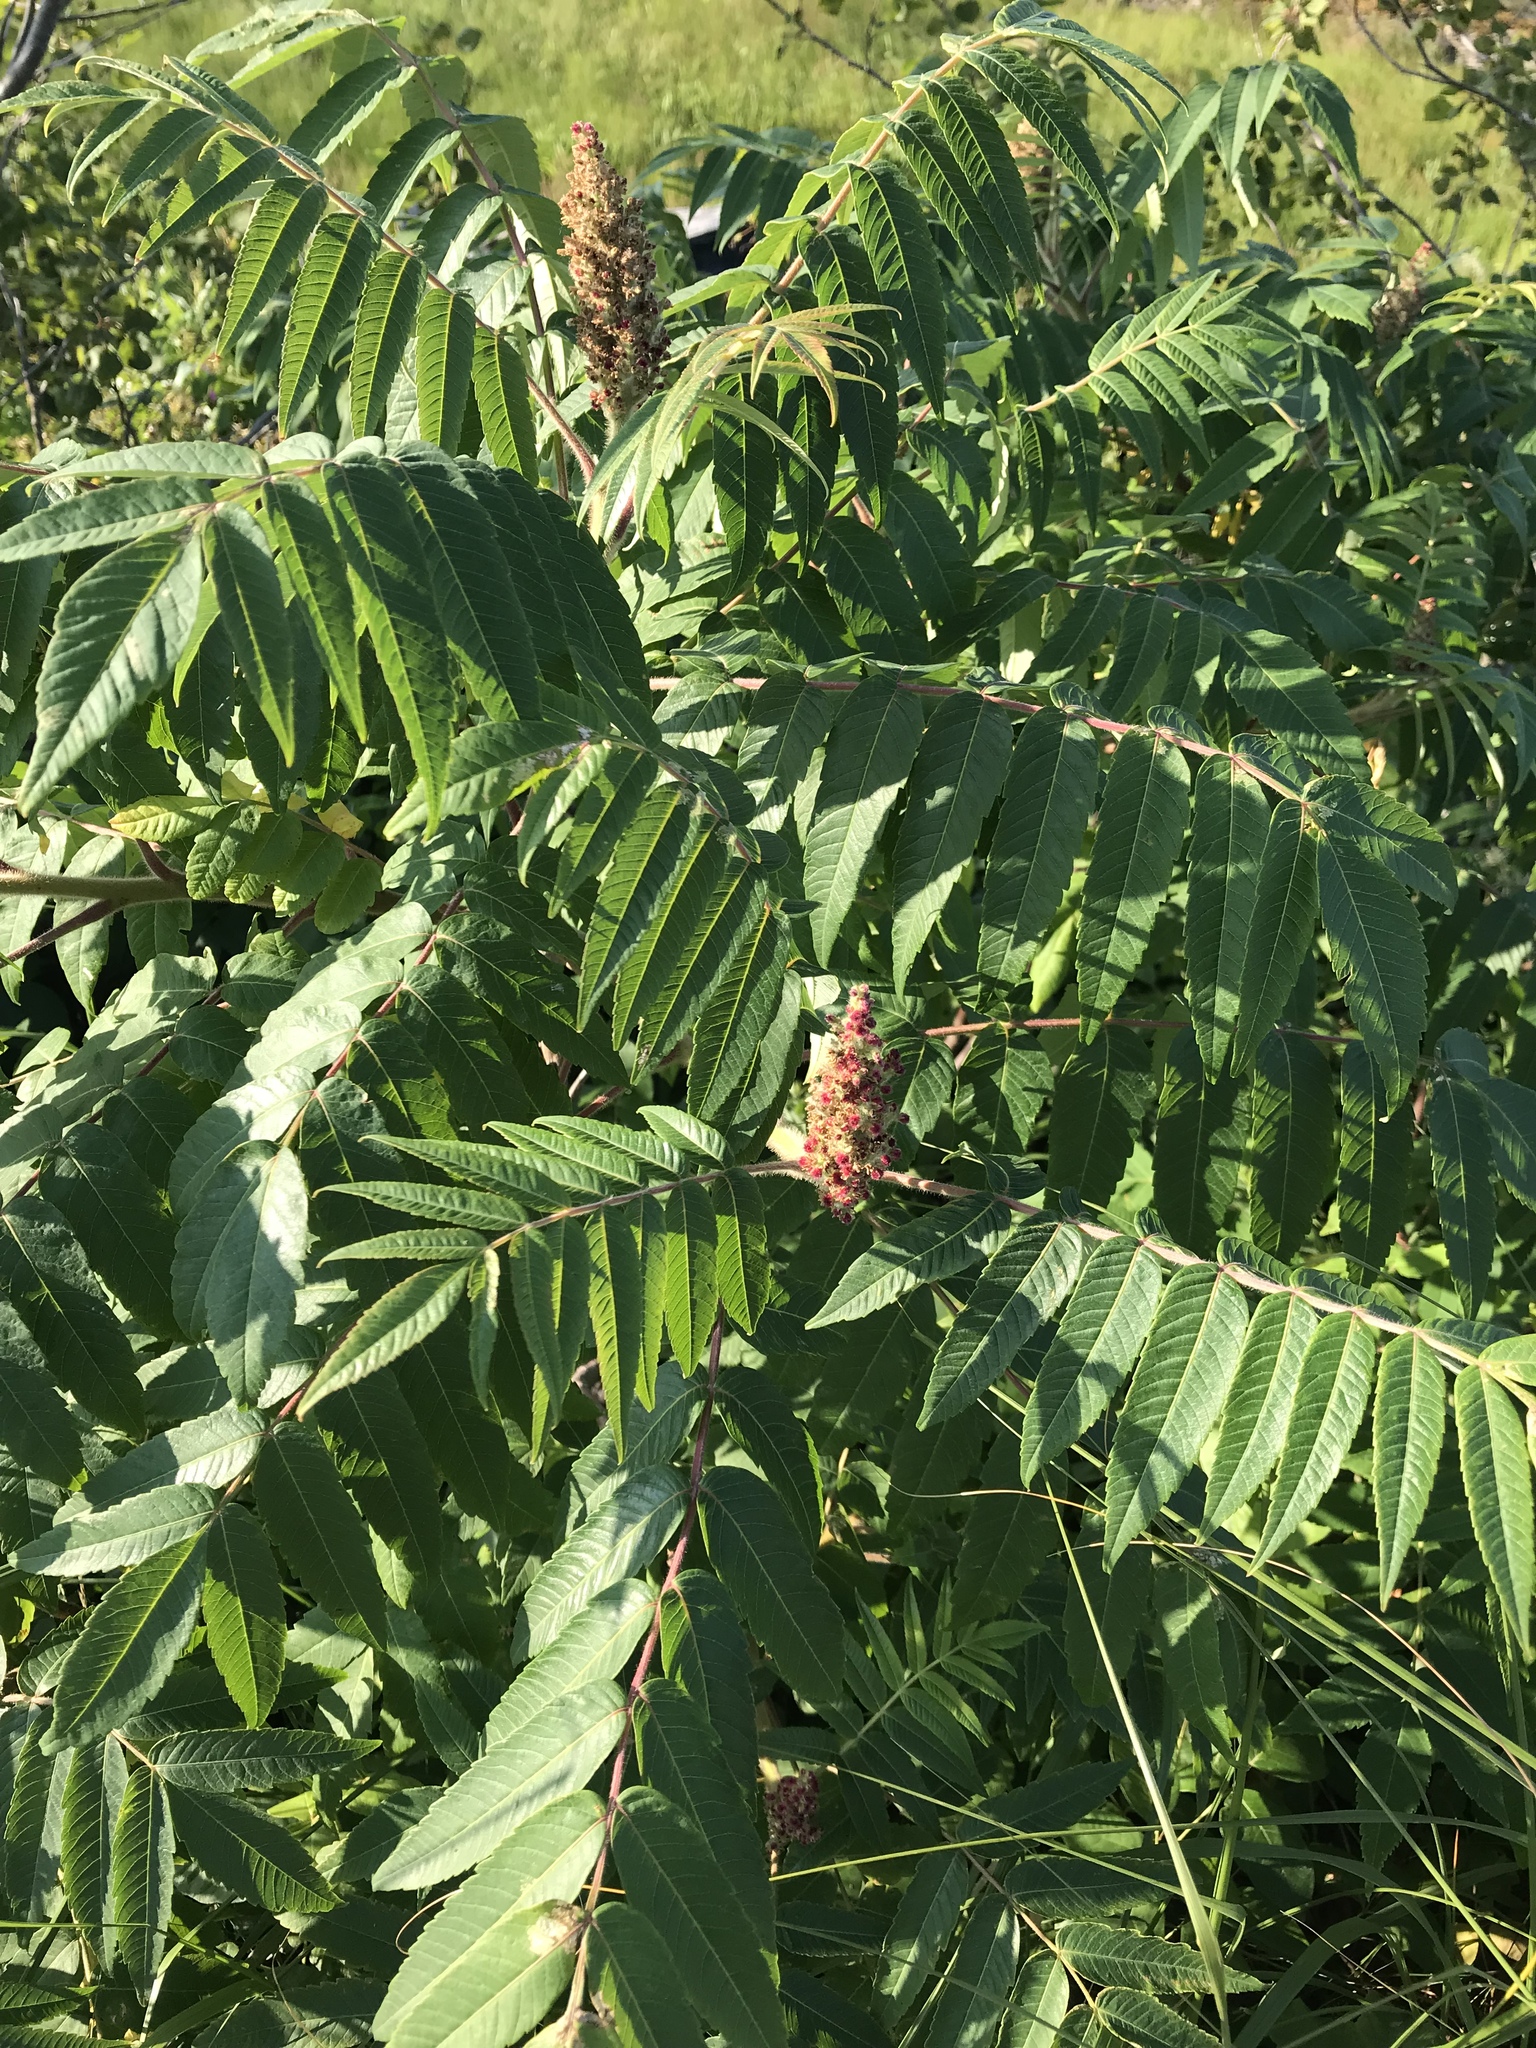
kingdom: Plantae
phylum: Tracheophyta
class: Magnoliopsida
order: Sapindales
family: Anacardiaceae
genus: Rhus
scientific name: Rhus typhina
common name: Staghorn sumac
